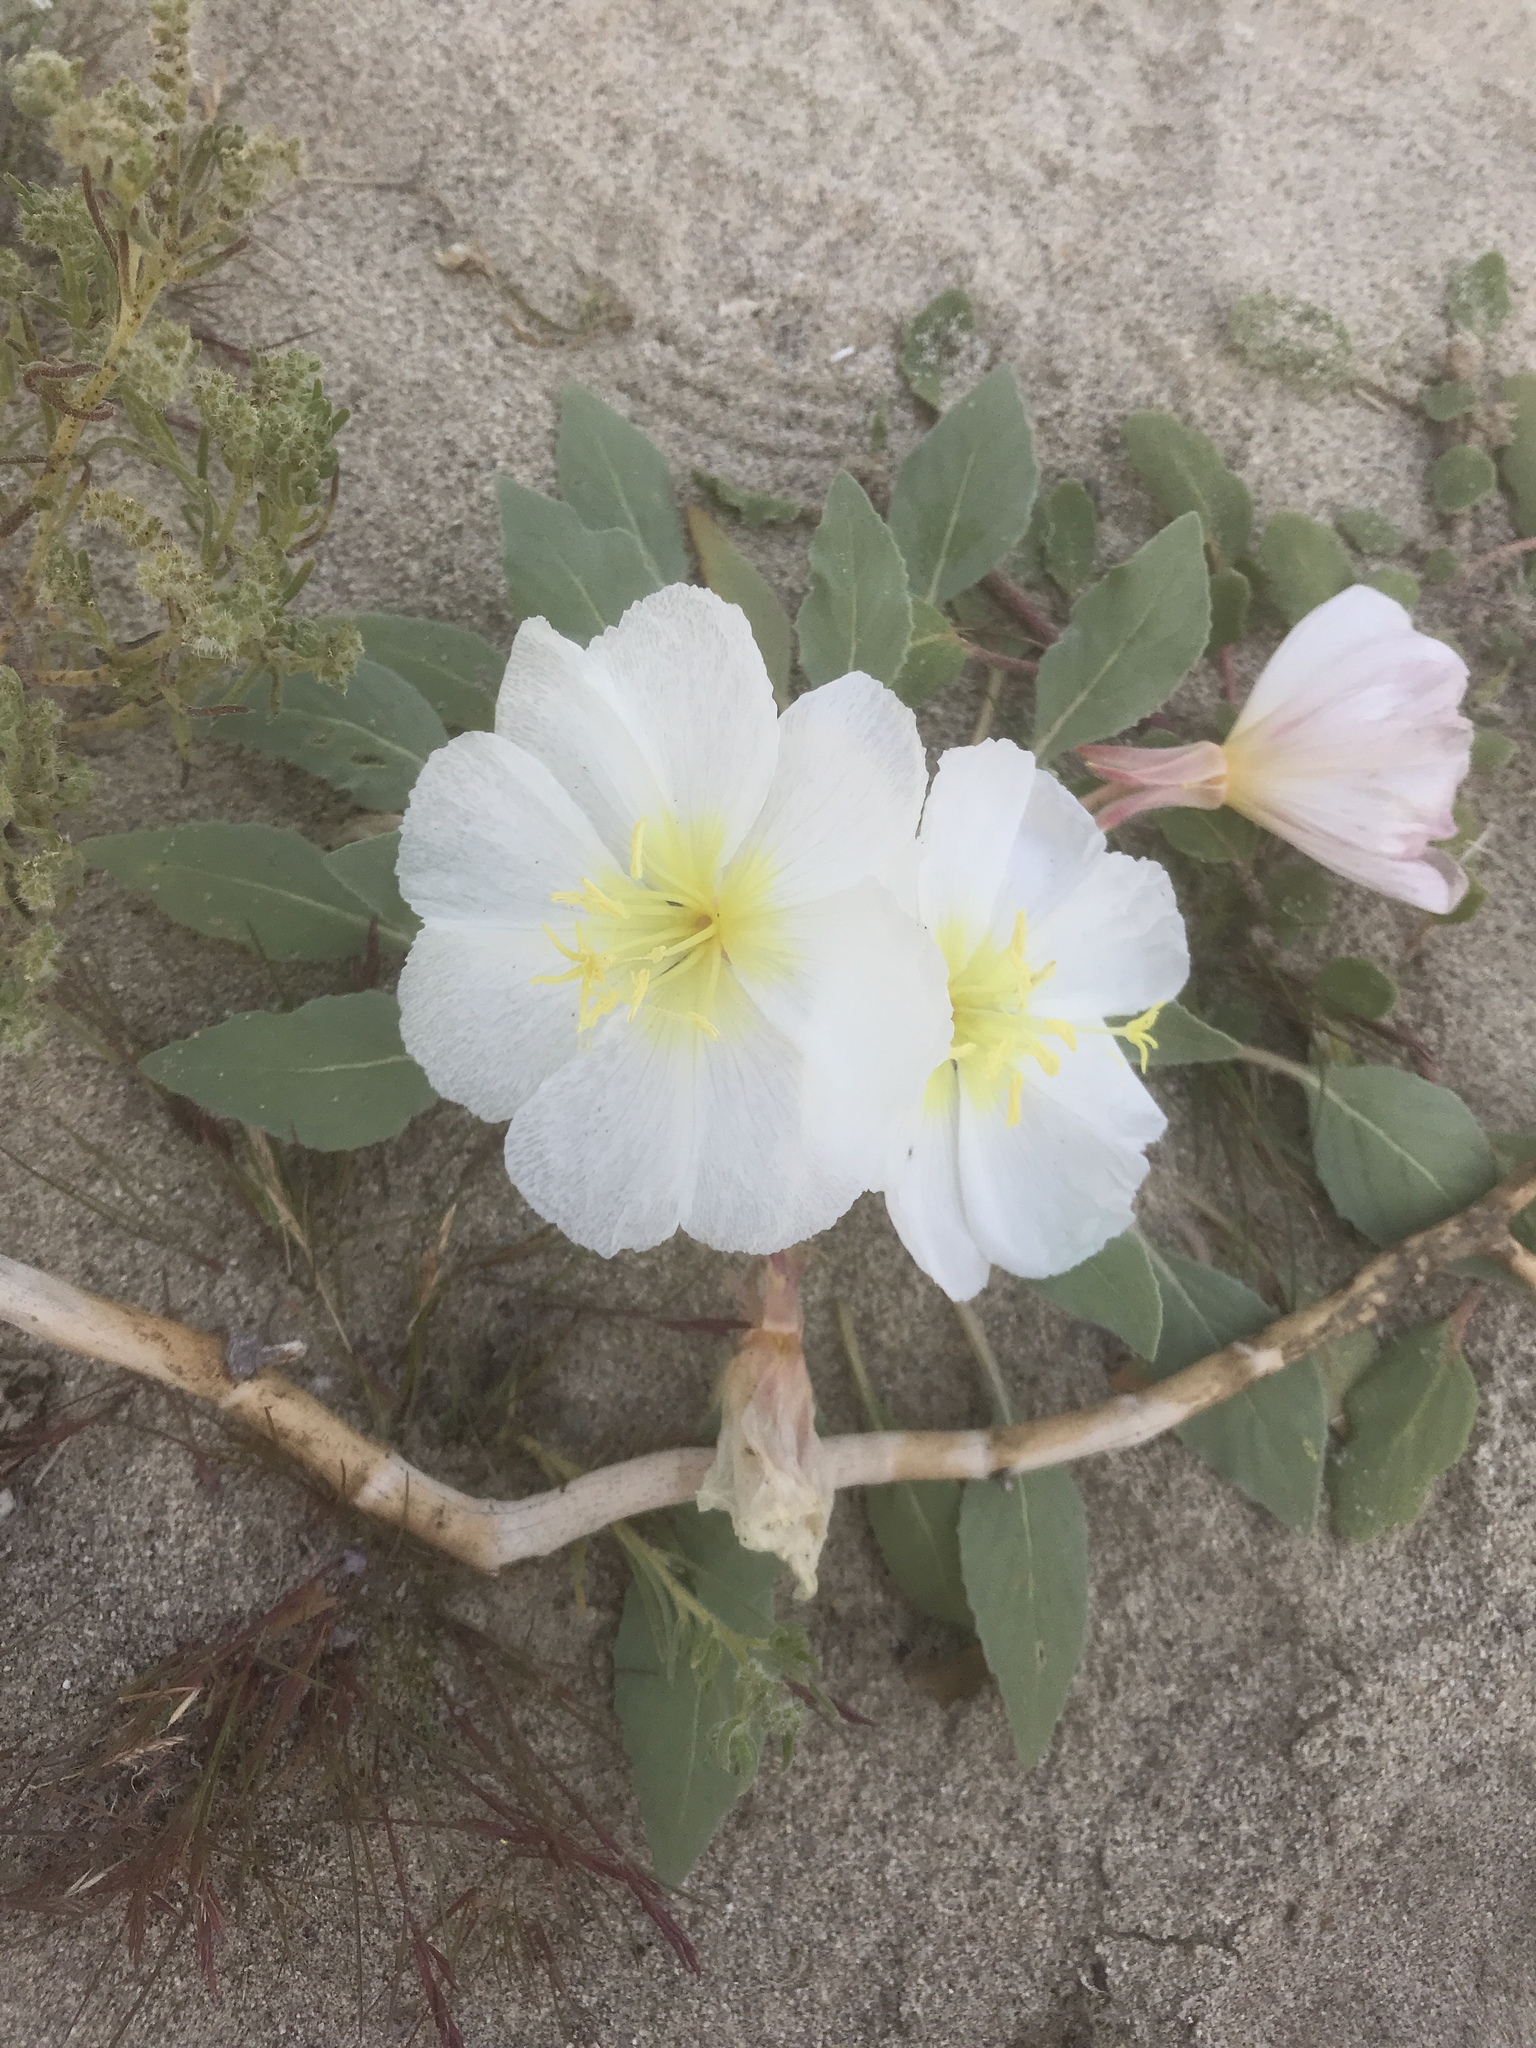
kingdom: Plantae
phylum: Tracheophyta
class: Magnoliopsida
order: Myrtales
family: Onagraceae
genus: Oenothera
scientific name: Oenothera deltoides
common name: Basket evening-primrose
